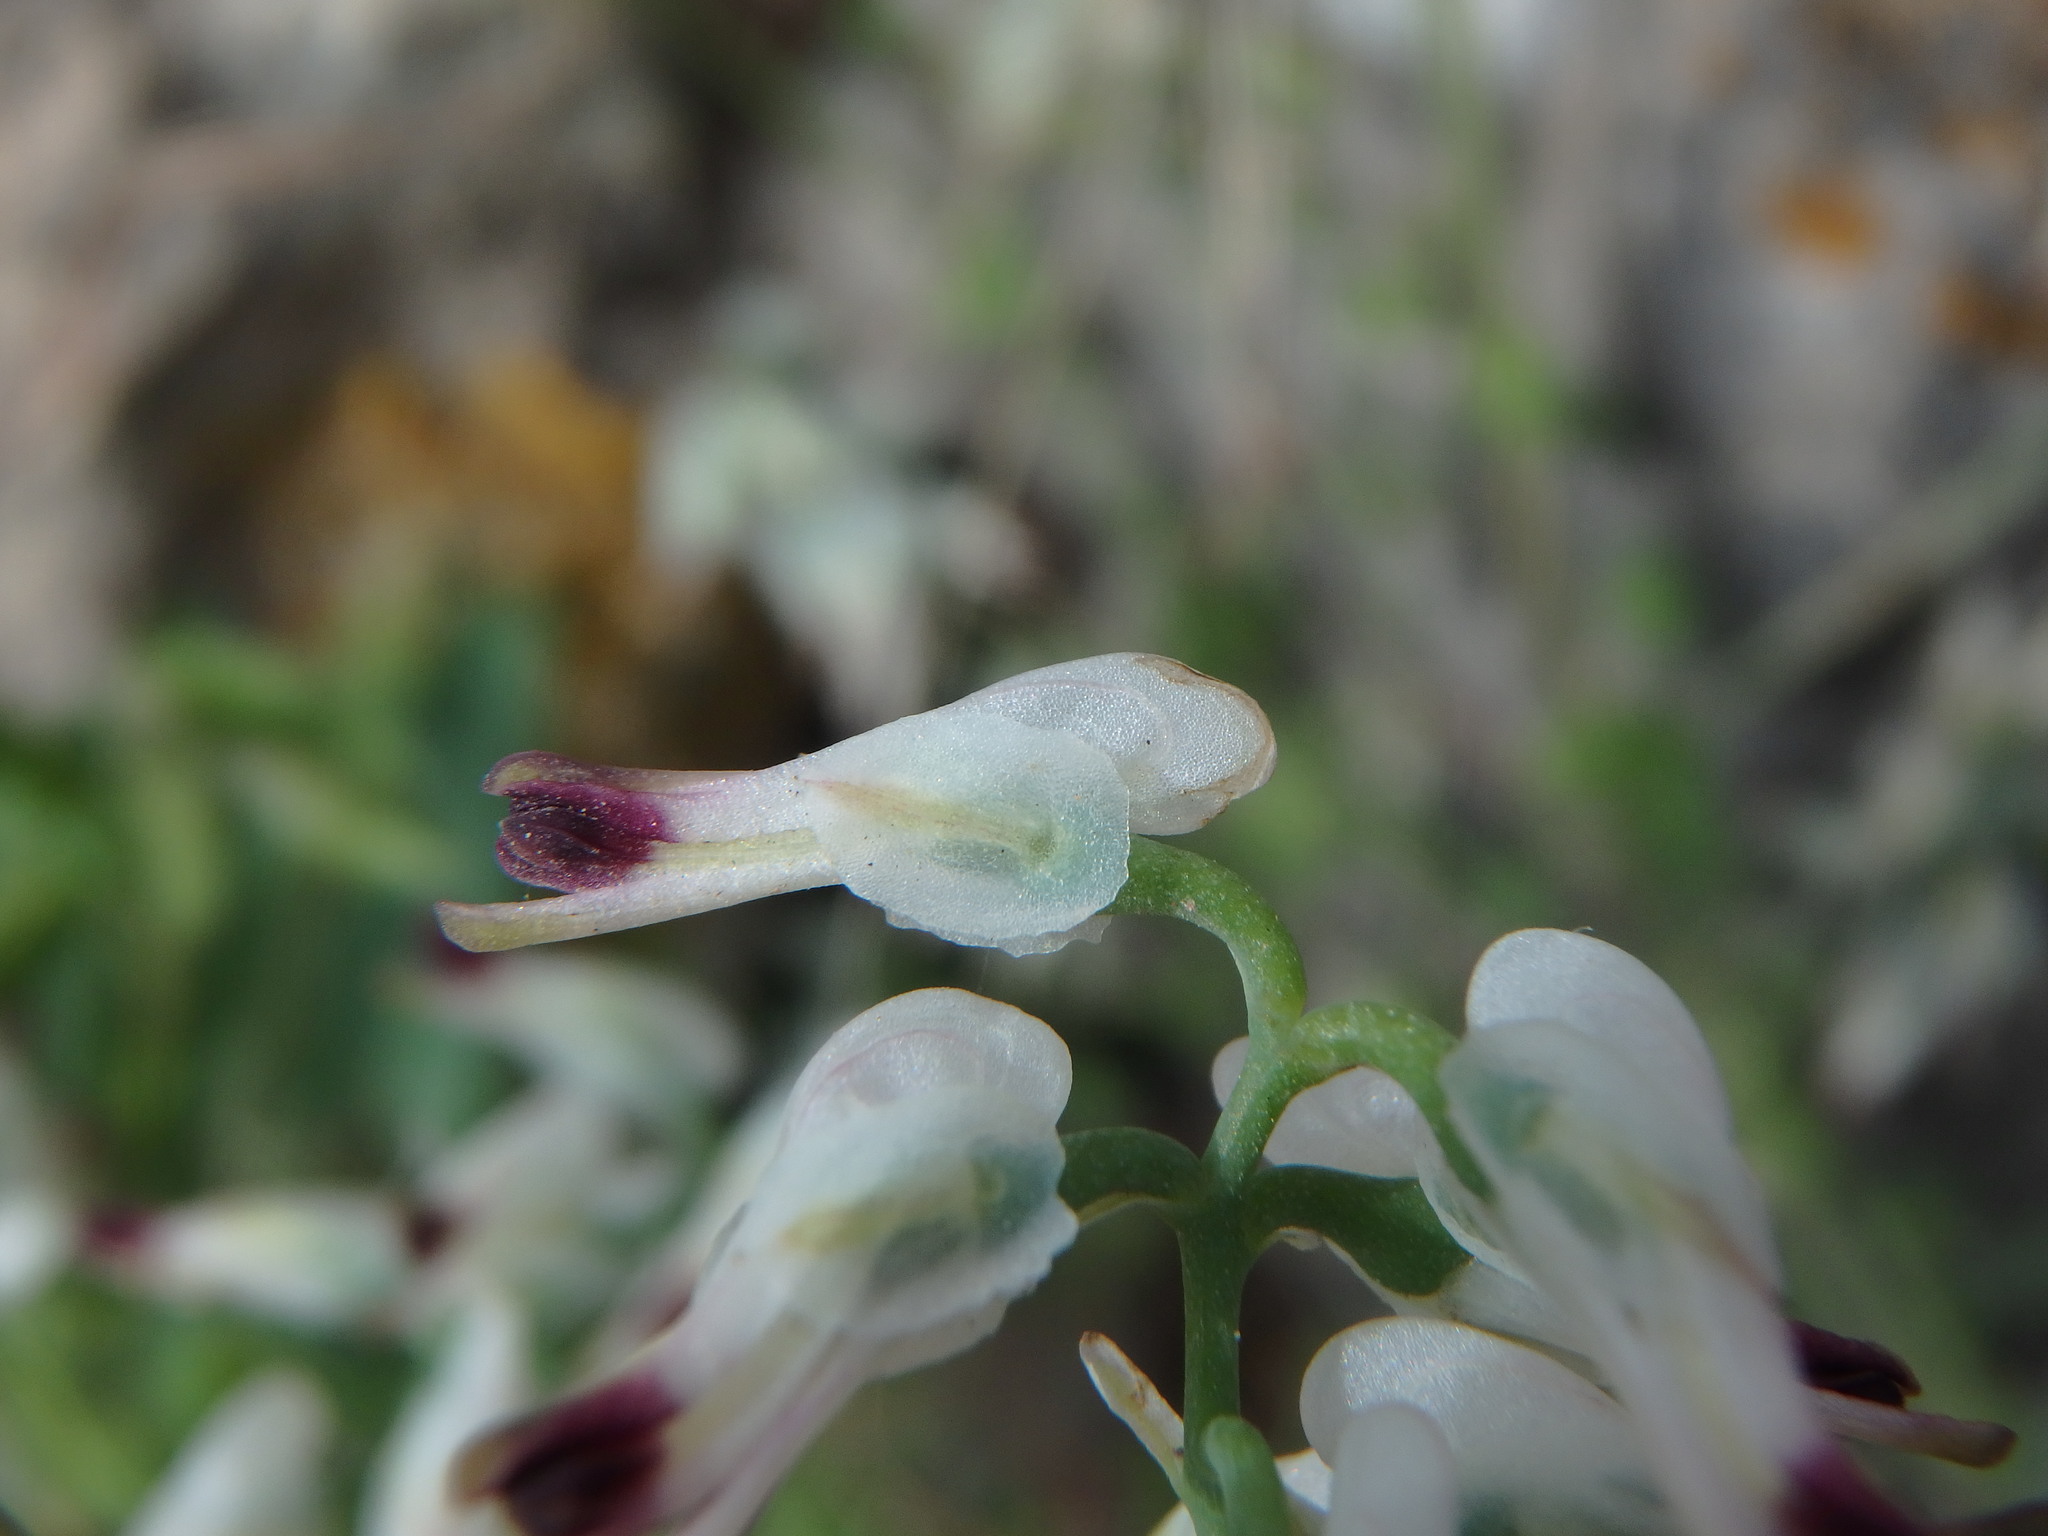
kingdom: Plantae
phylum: Tracheophyta
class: Magnoliopsida
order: Ranunculales
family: Papaveraceae
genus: Fumaria
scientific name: Fumaria capreolata
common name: White ramping-fumitory
